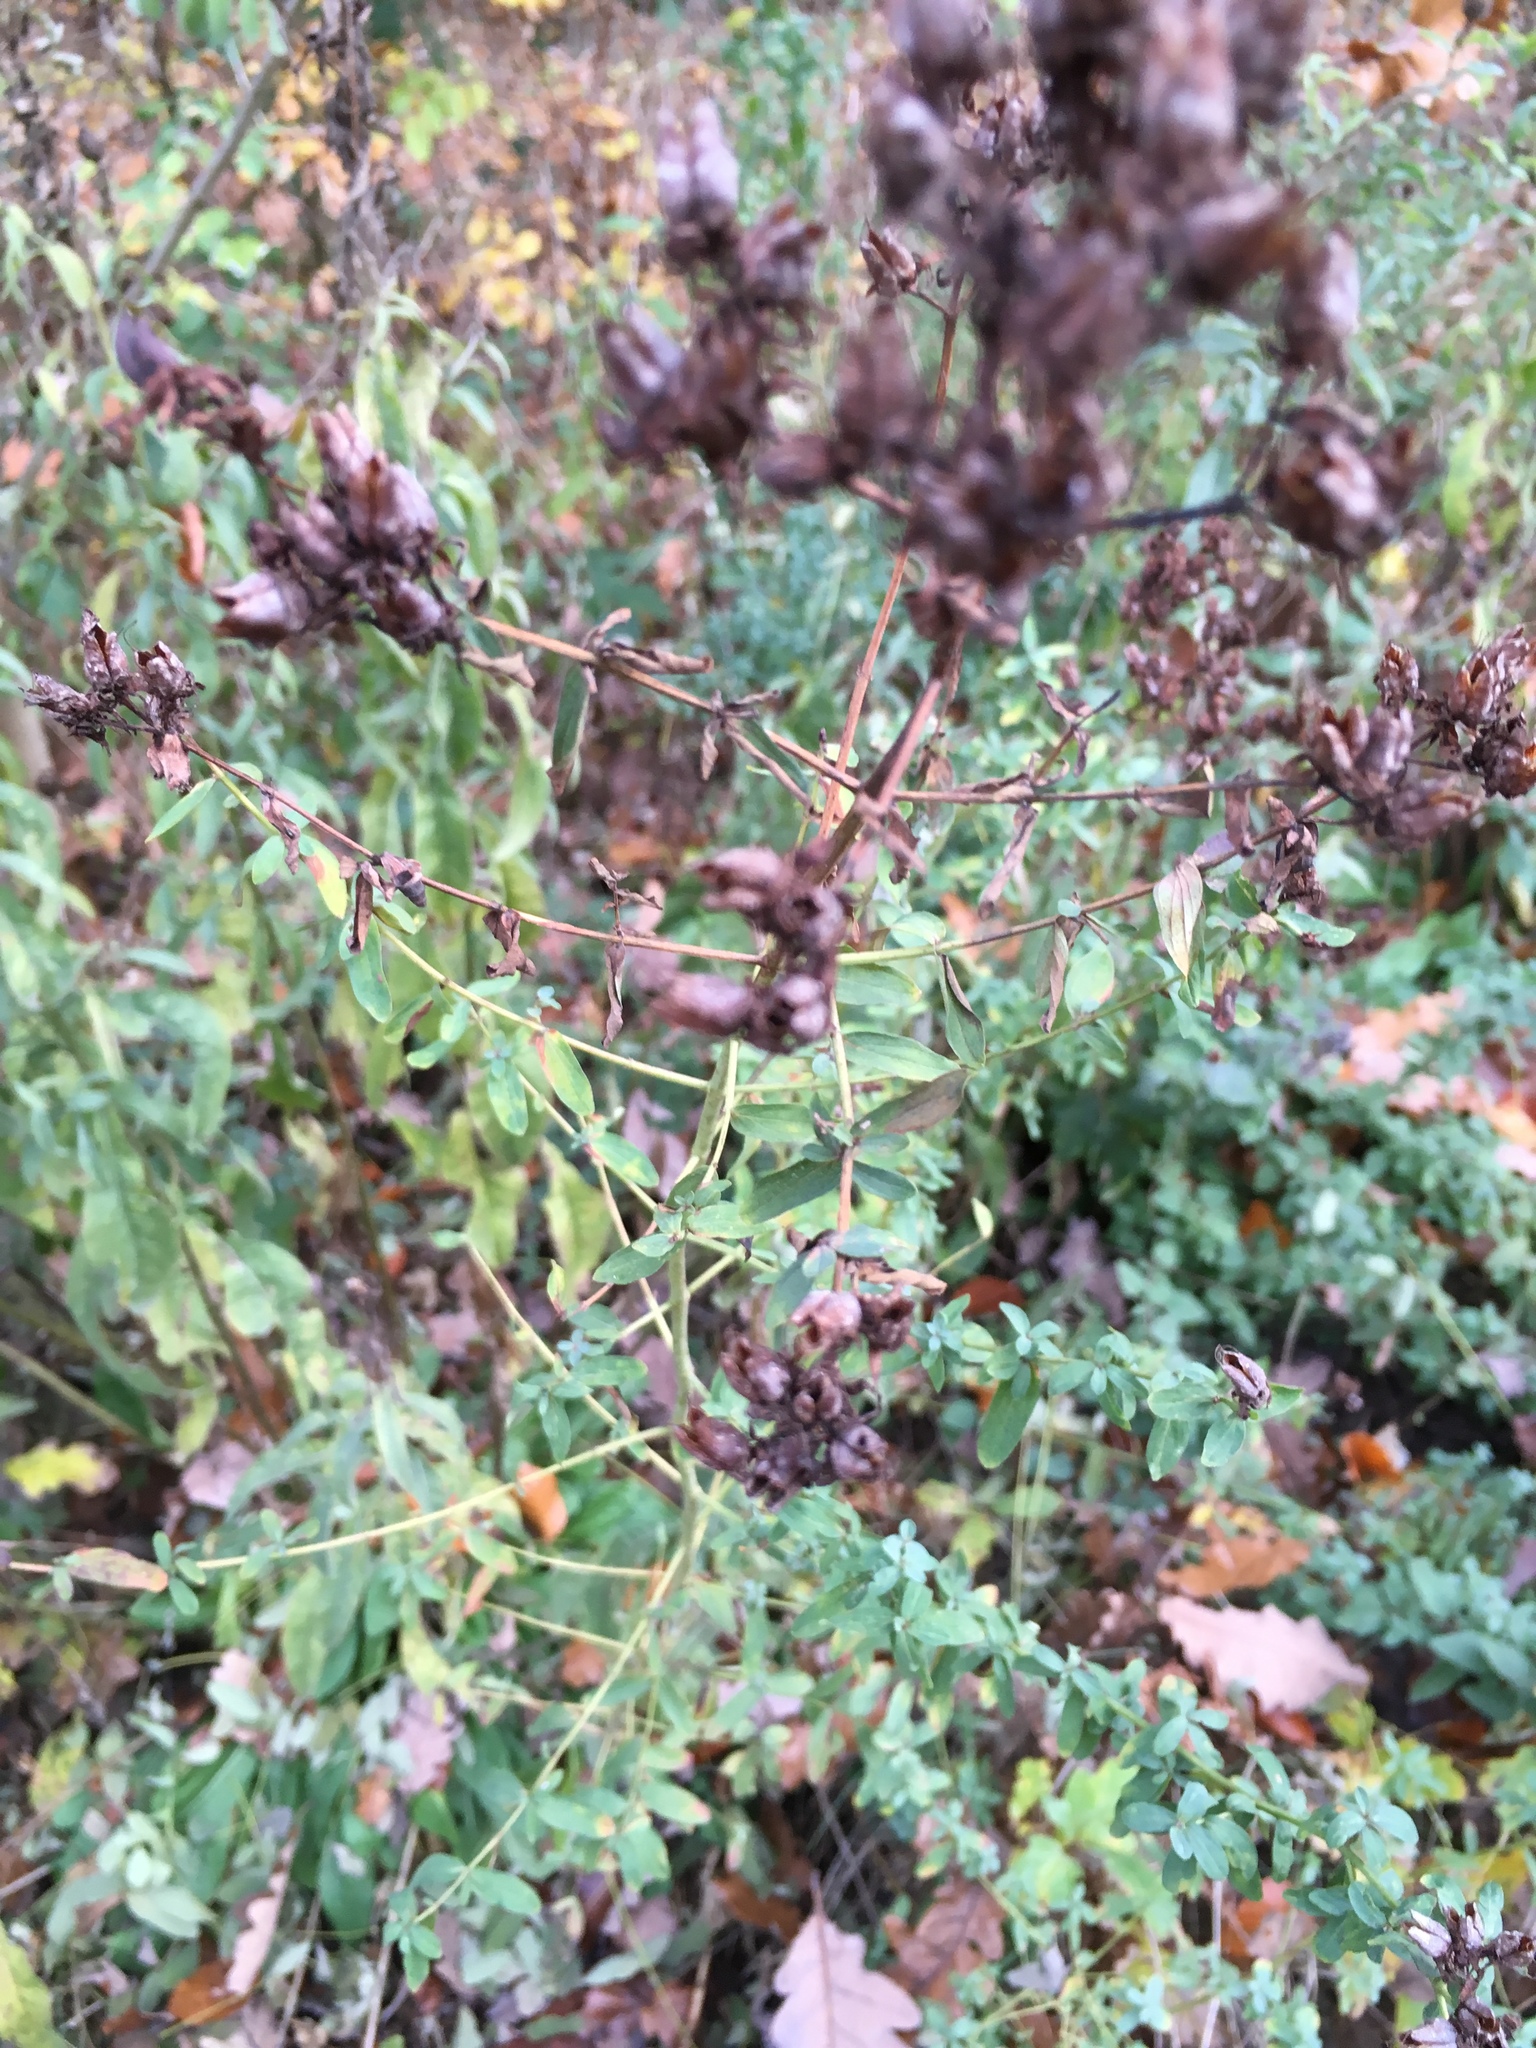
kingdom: Plantae
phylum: Tracheophyta
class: Magnoliopsida
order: Malpighiales
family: Hypericaceae
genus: Hypericum
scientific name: Hypericum perforatum
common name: Common st. johnswort
